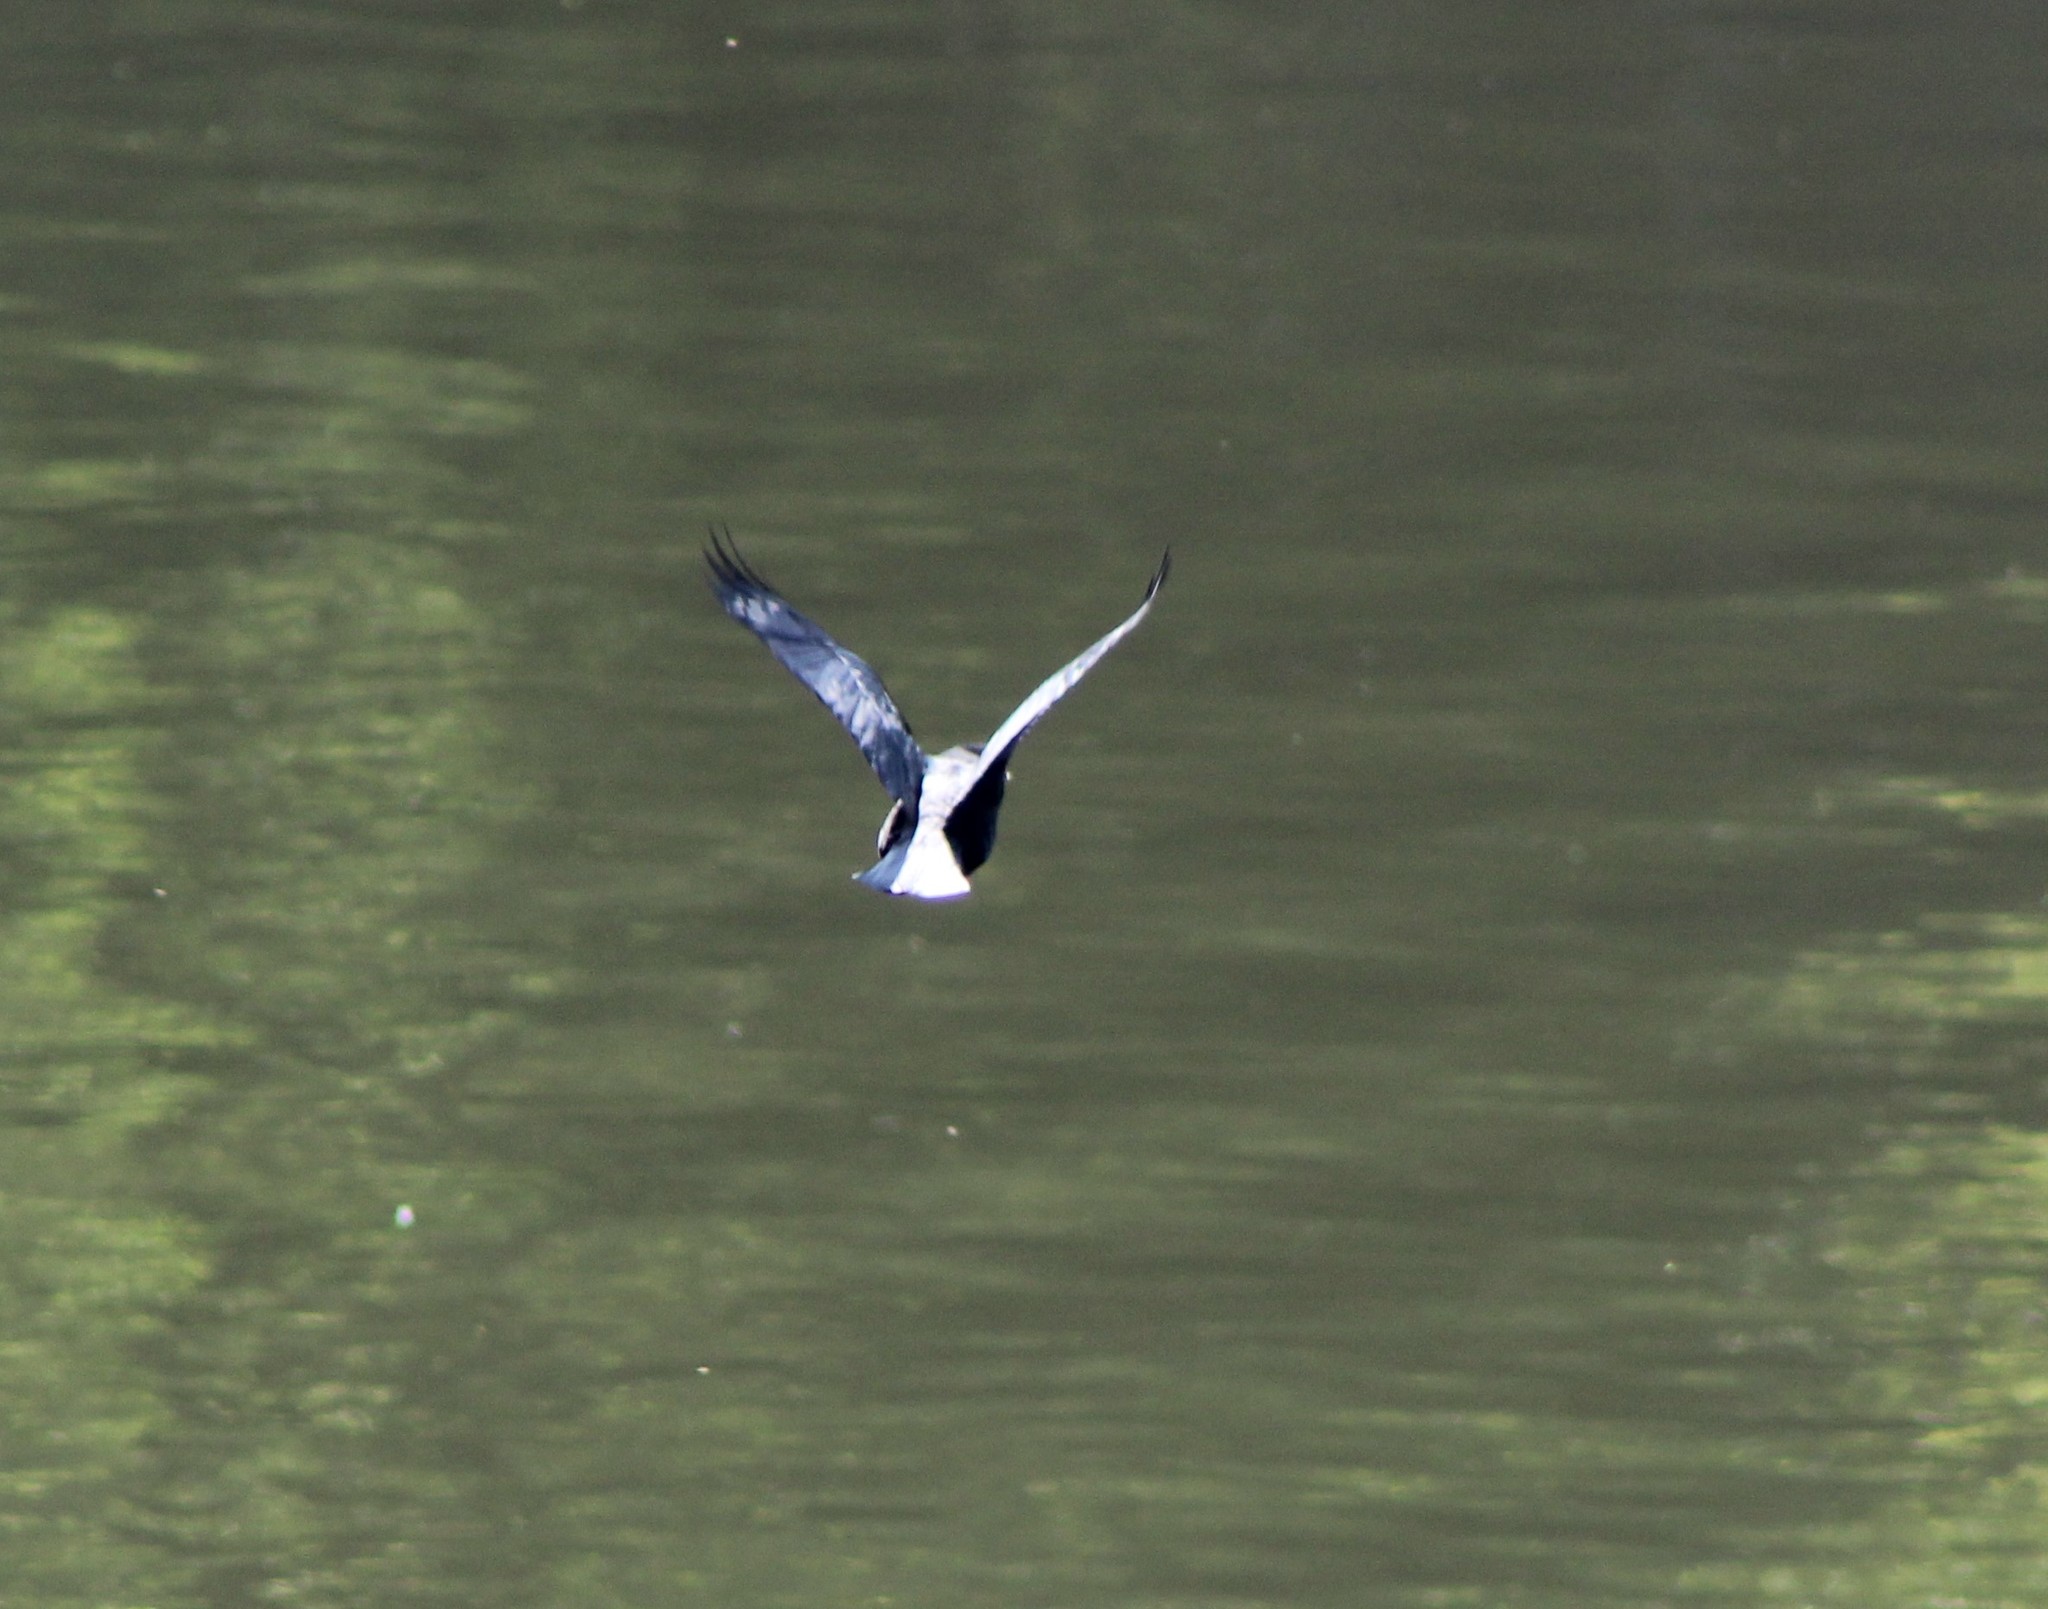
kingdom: Animalia
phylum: Chordata
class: Aves
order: Passeriformes
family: Corvidae
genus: Corvus
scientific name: Corvus brachyrhynchos
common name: American crow
